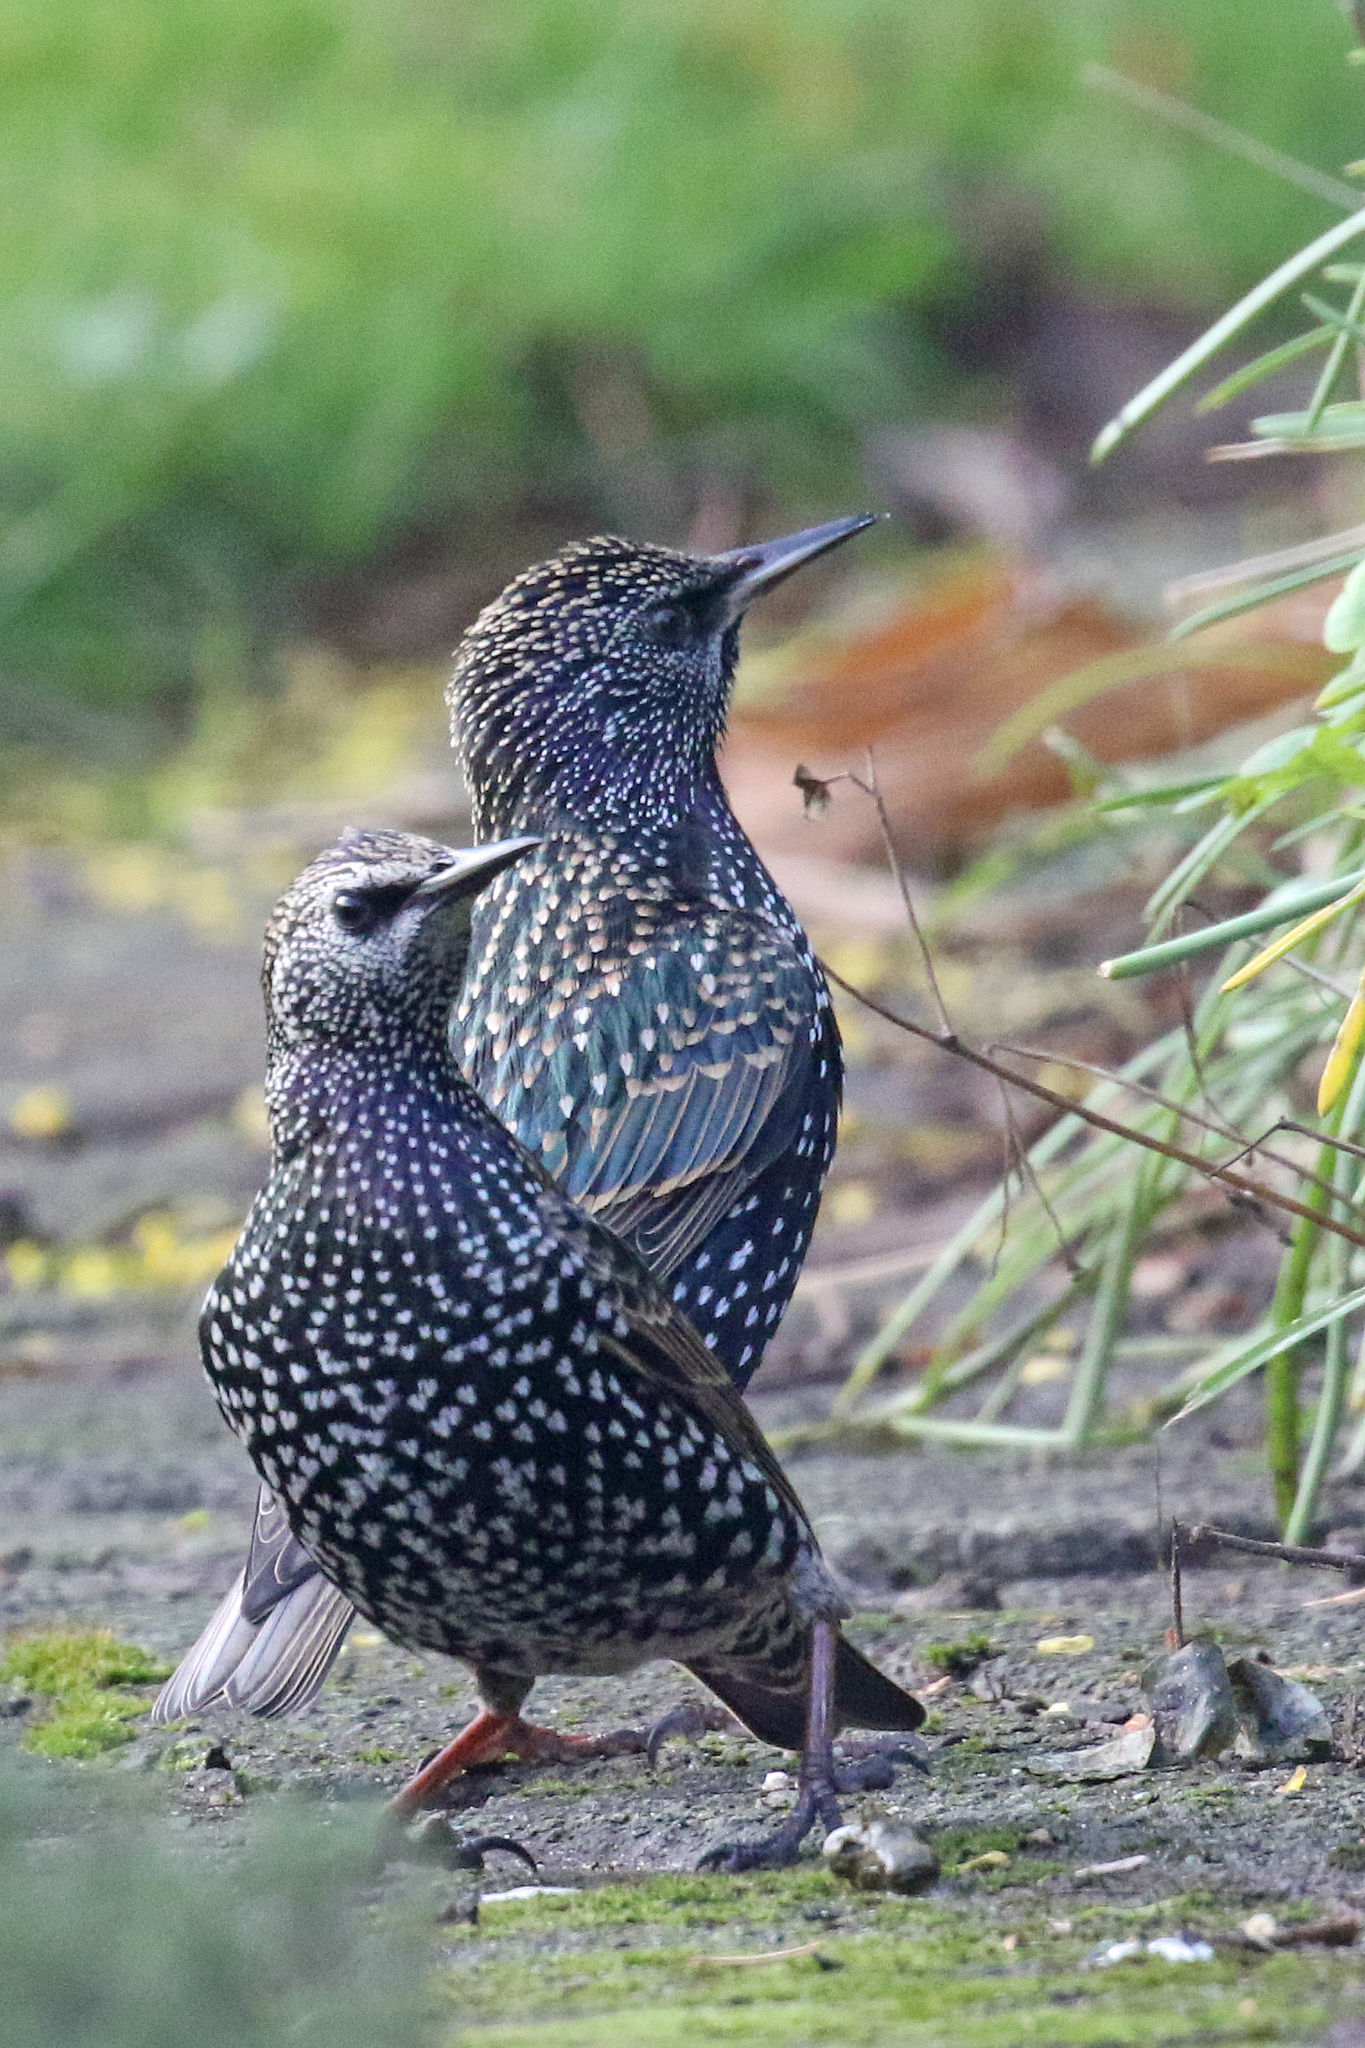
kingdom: Animalia
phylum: Chordata
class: Aves
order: Passeriformes
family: Sturnidae
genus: Sturnus
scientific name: Sturnus vulgaris
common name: Common starling
